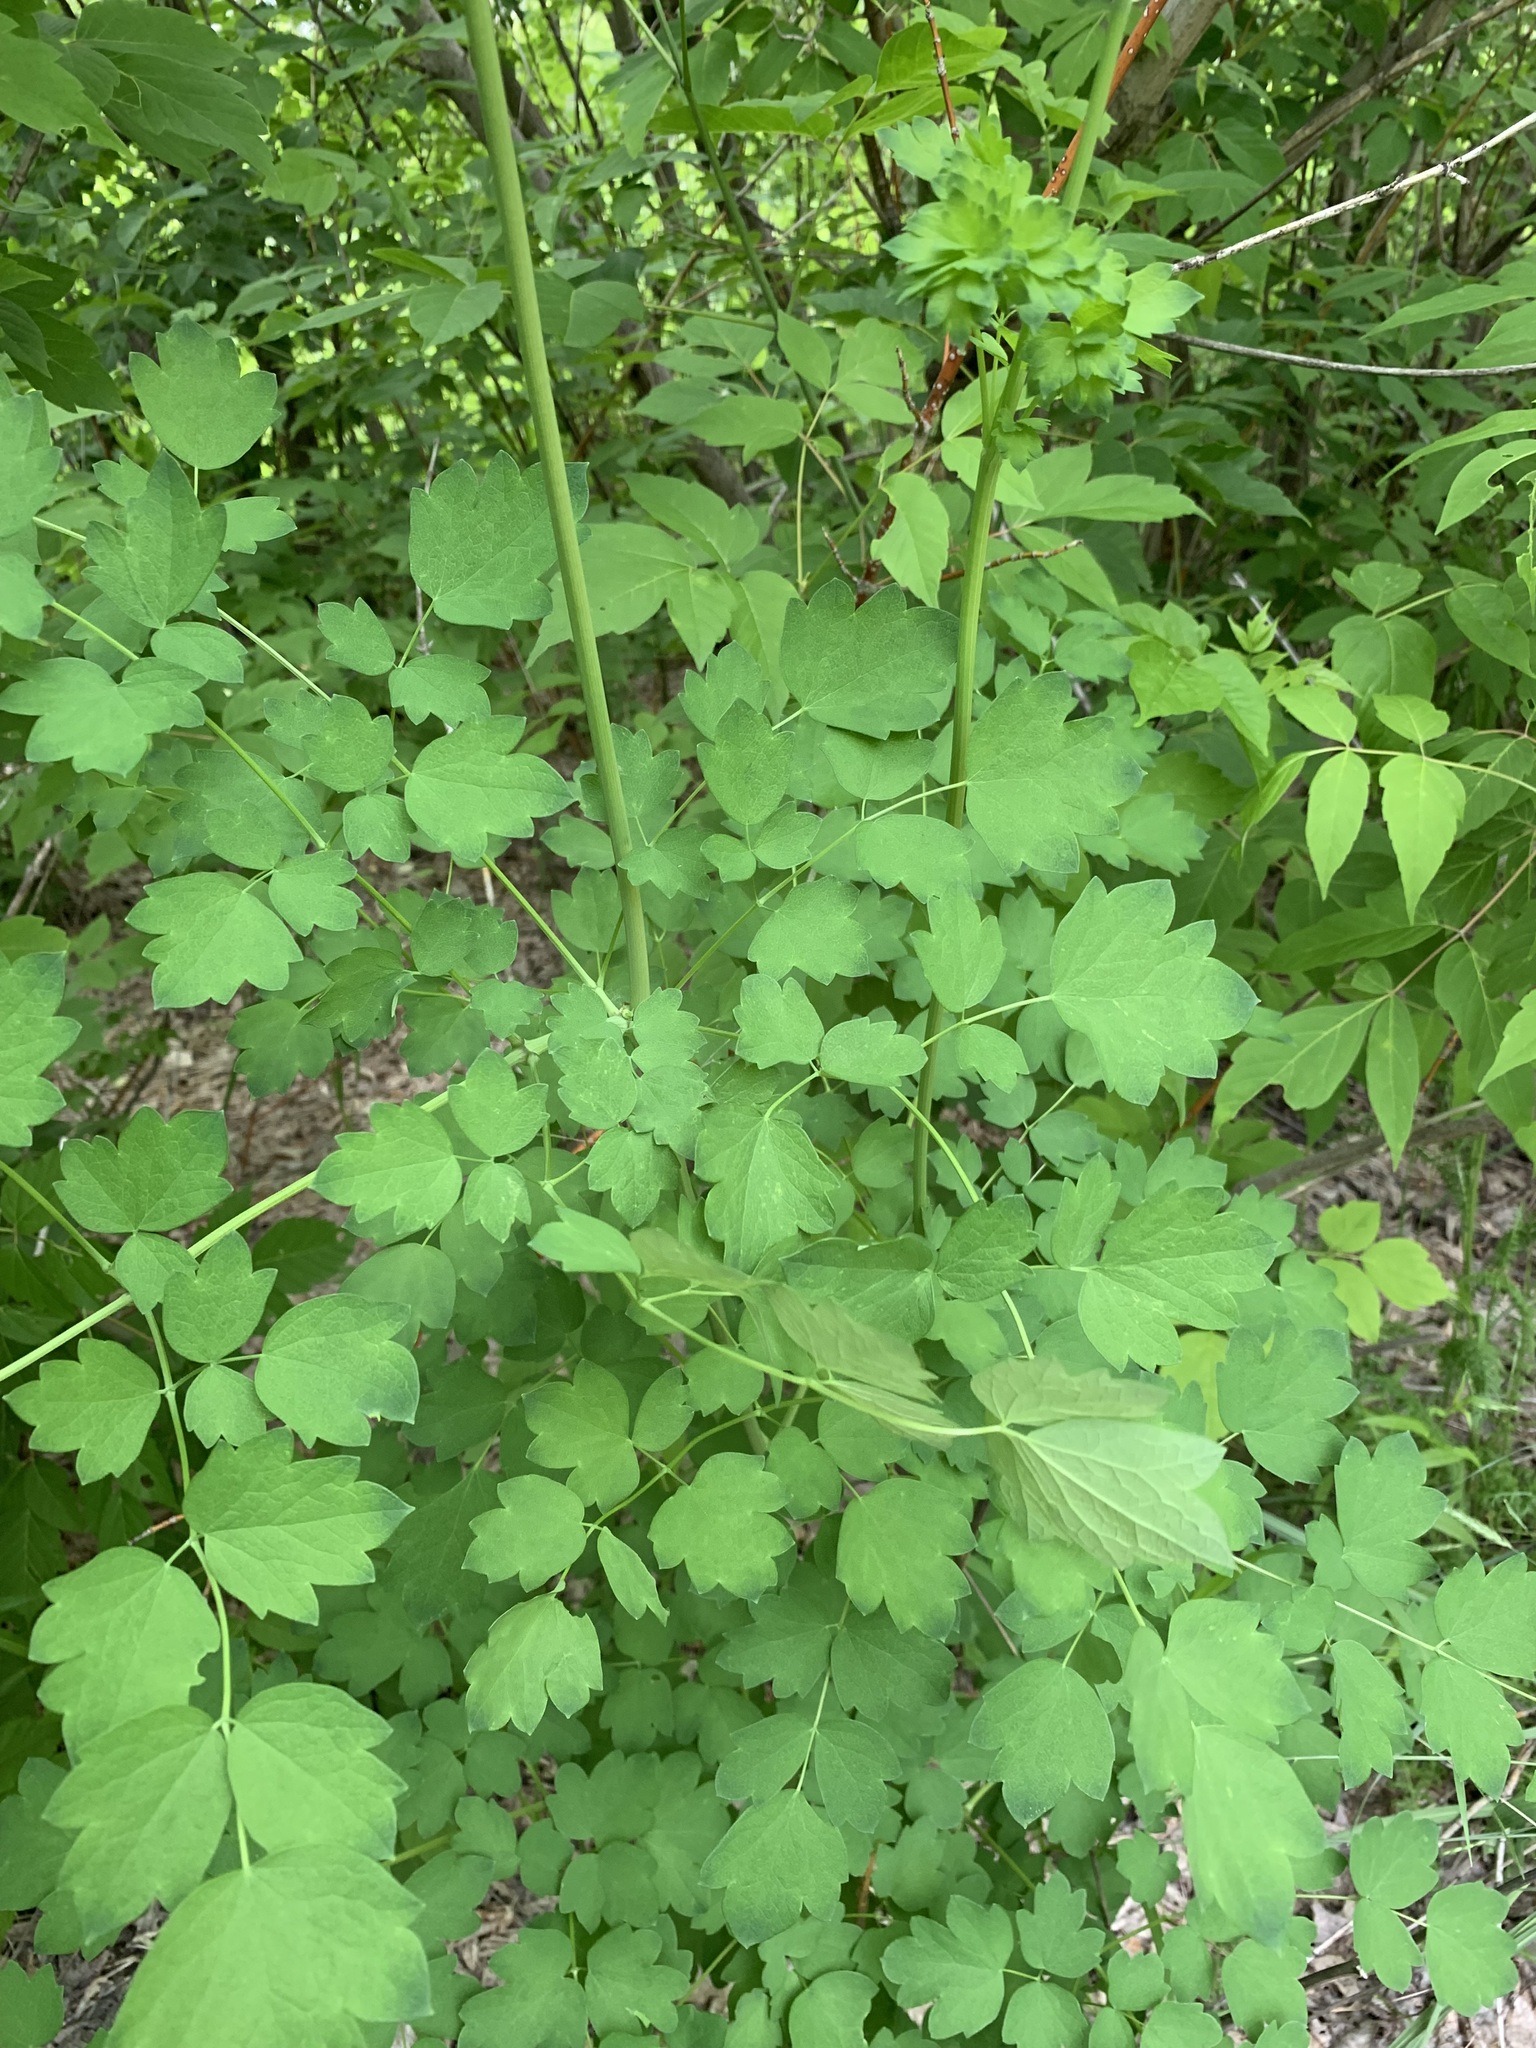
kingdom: Plantae
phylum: Tracheophyta
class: Magnoliopsida
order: Ranunculales
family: Ranunculaceae
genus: Thalictrum
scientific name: Thalictrum minus
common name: Lesser meadow-rue
